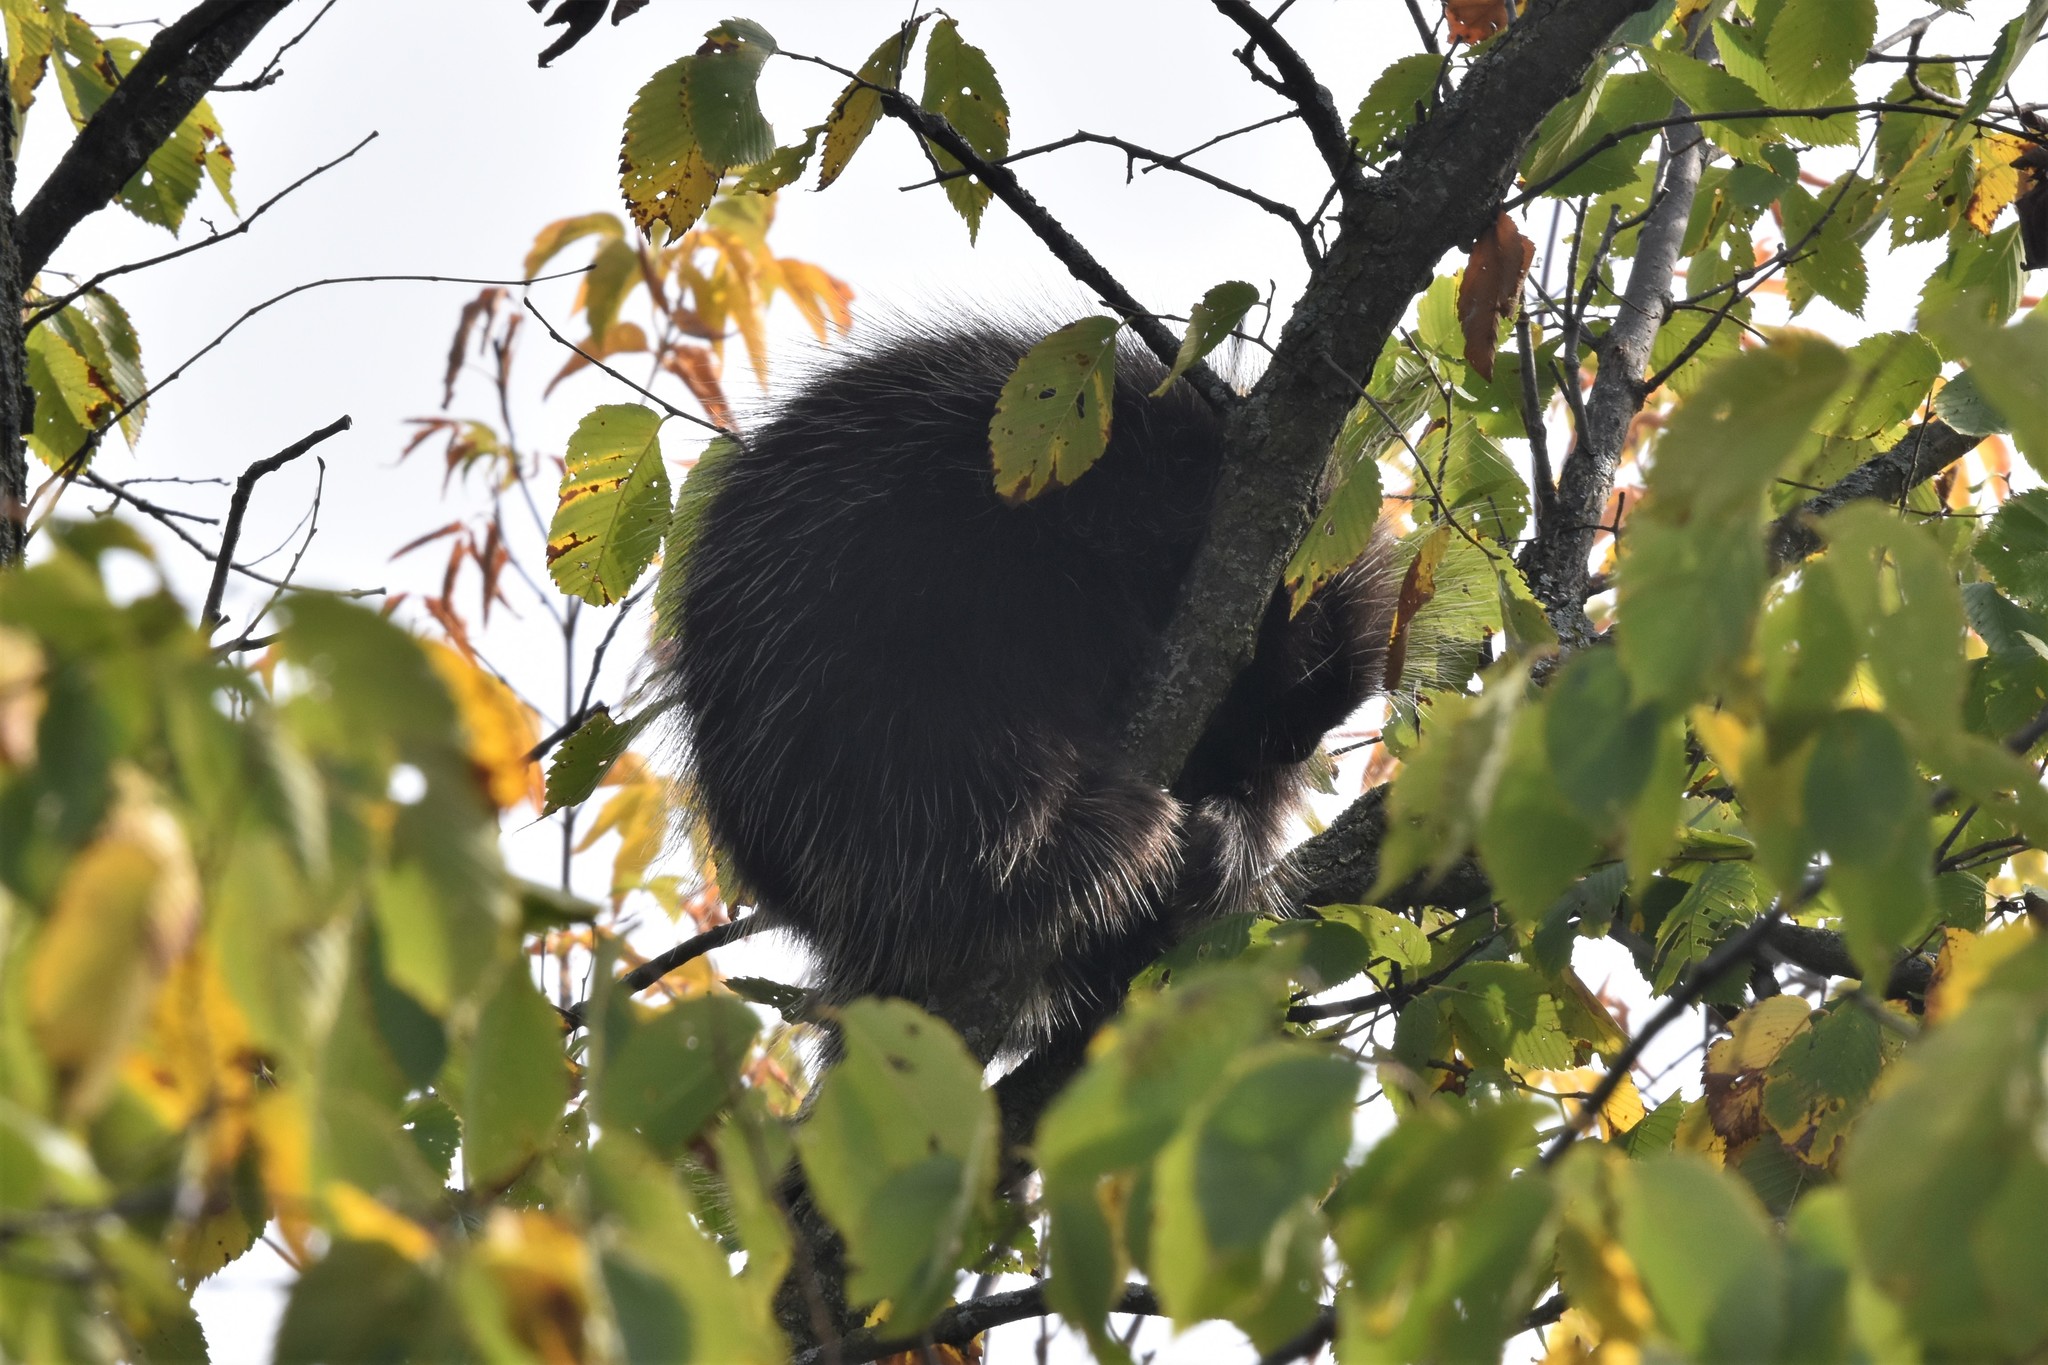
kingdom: Animalia
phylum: Chordata
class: Mammalia
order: Rodentia
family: Erethizontidae
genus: Erethizon
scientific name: Erethizon dorsatus
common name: North american porcupine
